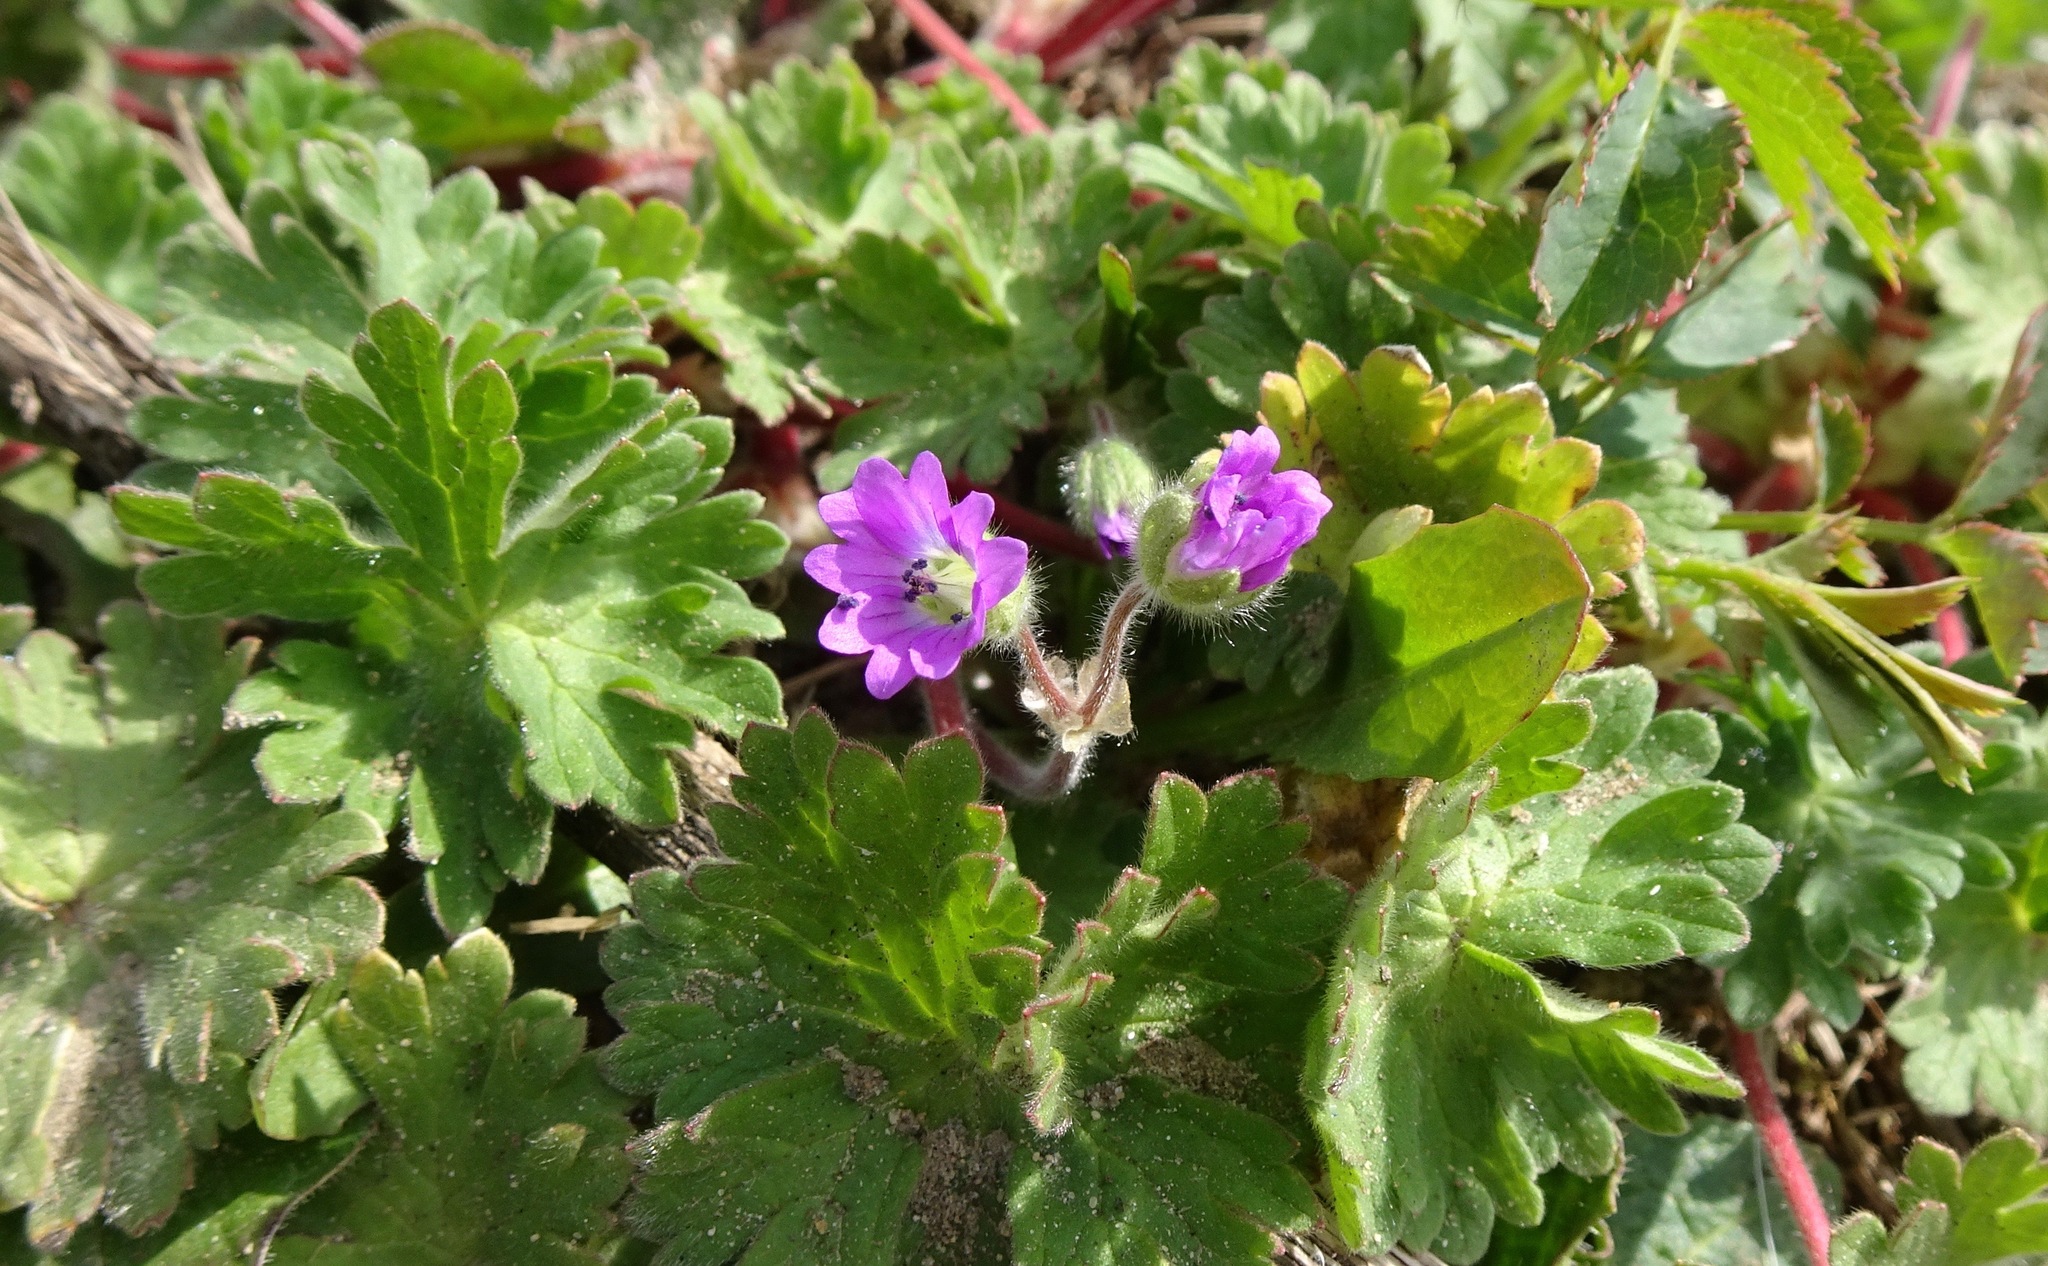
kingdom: Plantae
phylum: Tracheophyta
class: Magnoliopsida
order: Geraniales
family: Geraniaceae
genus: Geranium
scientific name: Geranium molle
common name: Dove's-foot crane's-bill
